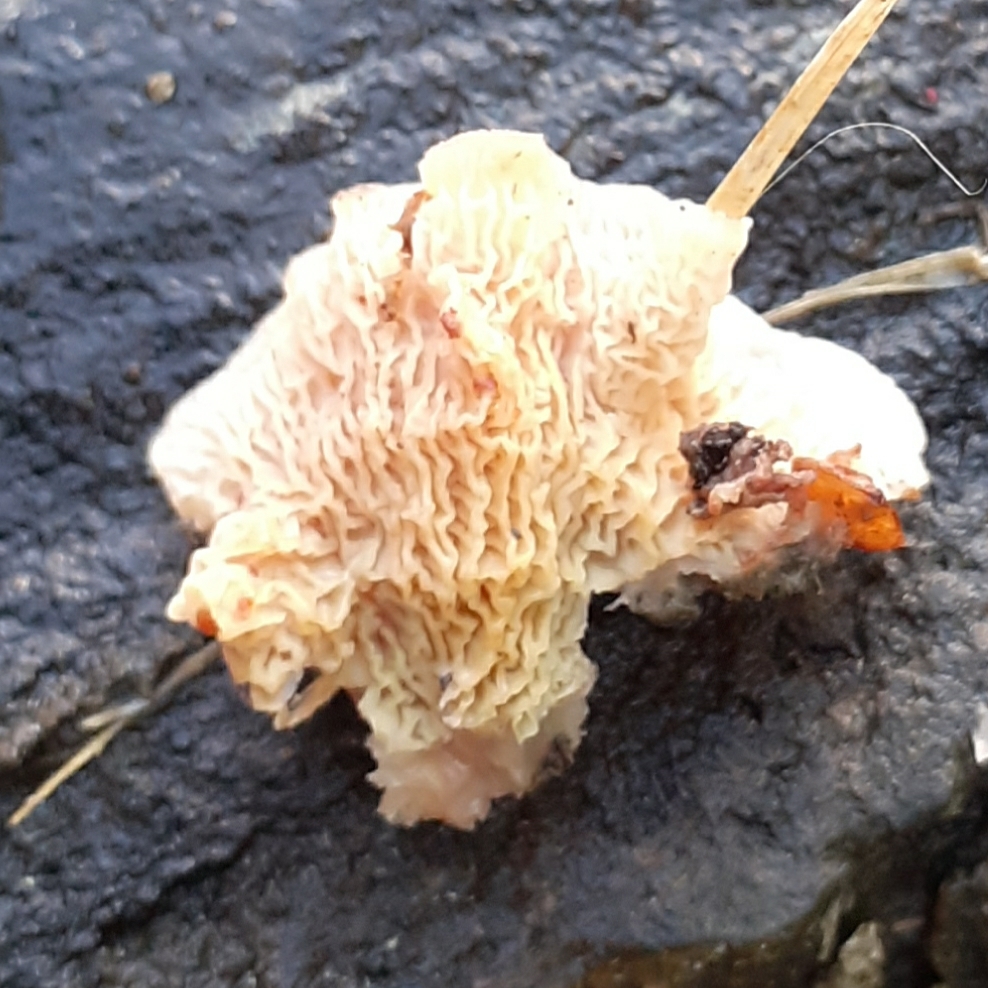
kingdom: Fungi
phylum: Basidiomycota
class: Agaricomycetes
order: Polyporales
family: Meruliaceae
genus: Phlebia
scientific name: Phlebia tremellosa
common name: Jelly rot
